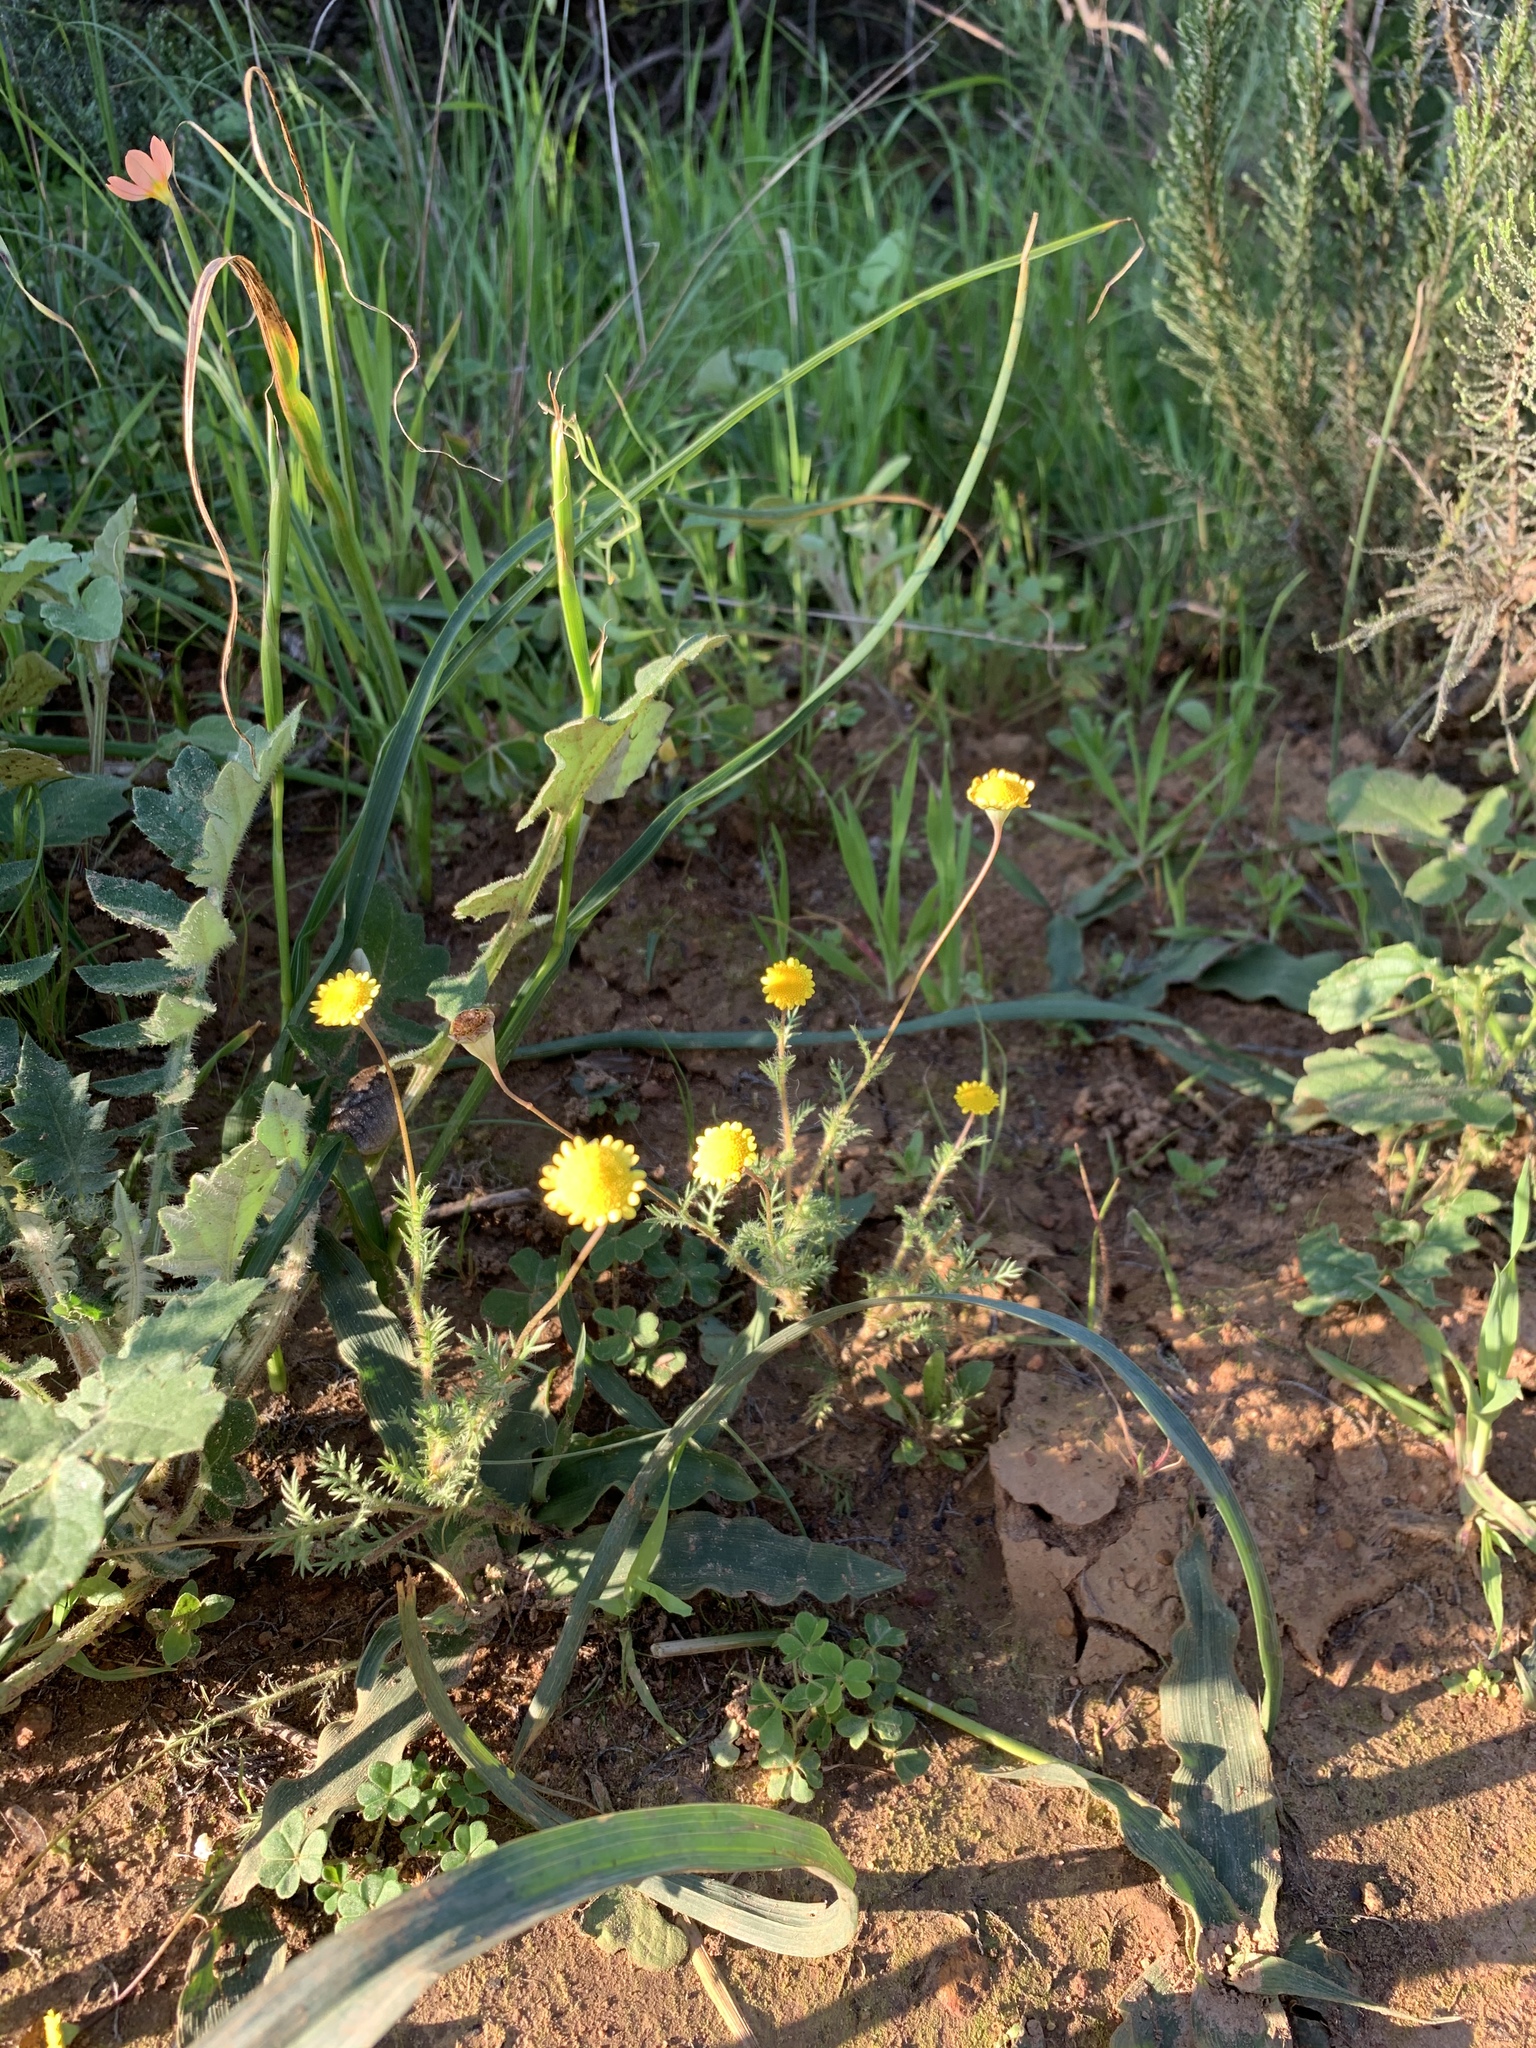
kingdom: Plantae
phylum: Tracheophyta
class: Magnoliopsida
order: Asterales
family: Asteraceae
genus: Cotula
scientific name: Cotula pruinosa
